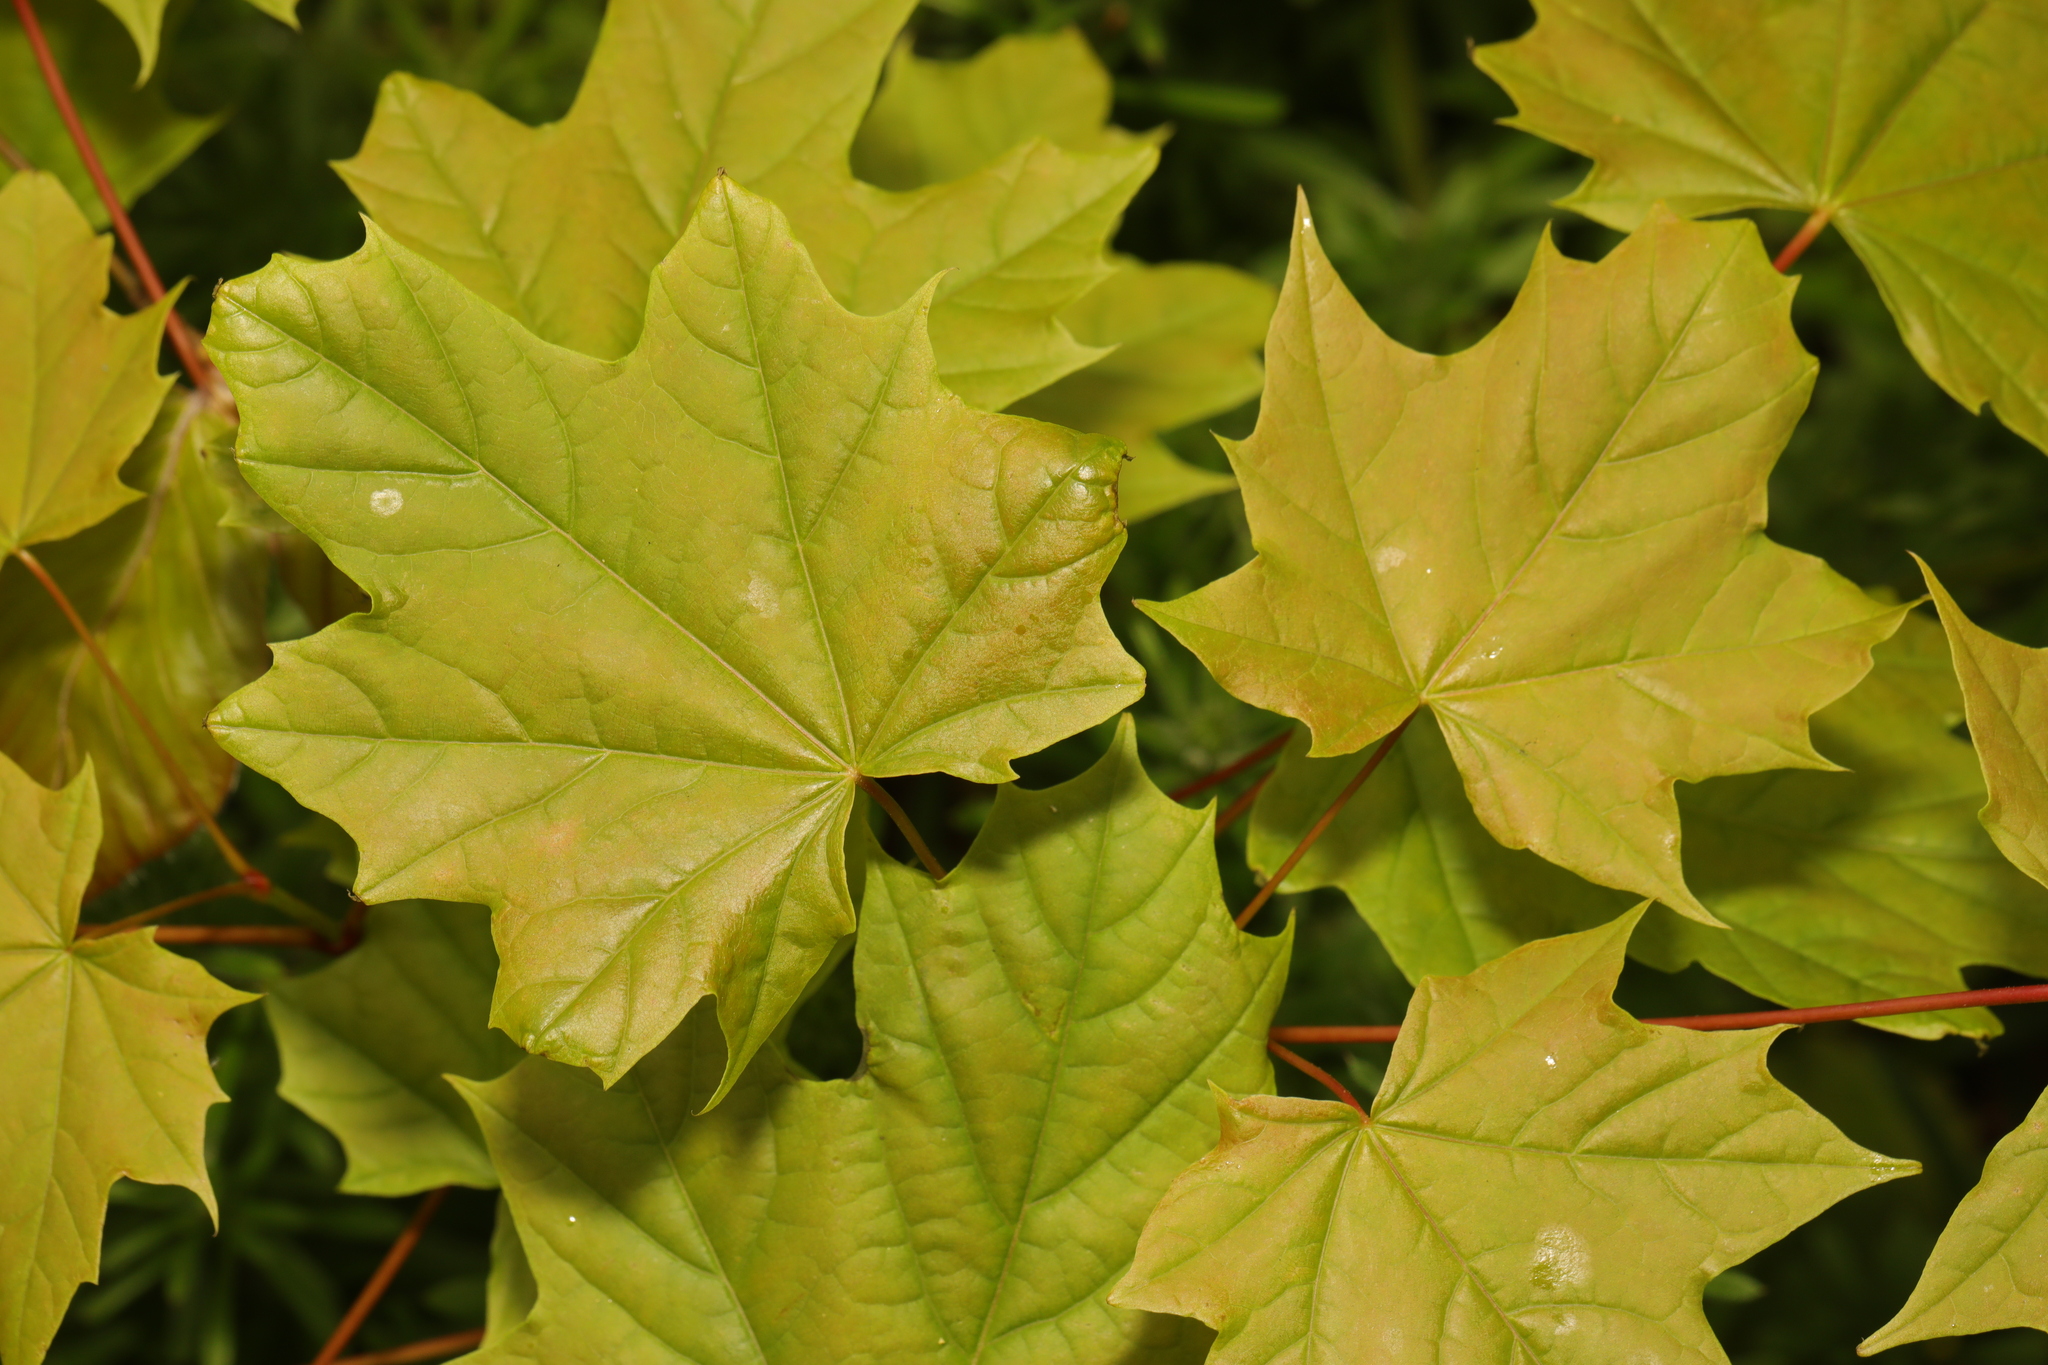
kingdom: Plantae
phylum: Tracheophyta
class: Magnoliopsida
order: Sapindales
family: Sapindaceae
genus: Acer
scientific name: Acer platanoides
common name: Norway maple
